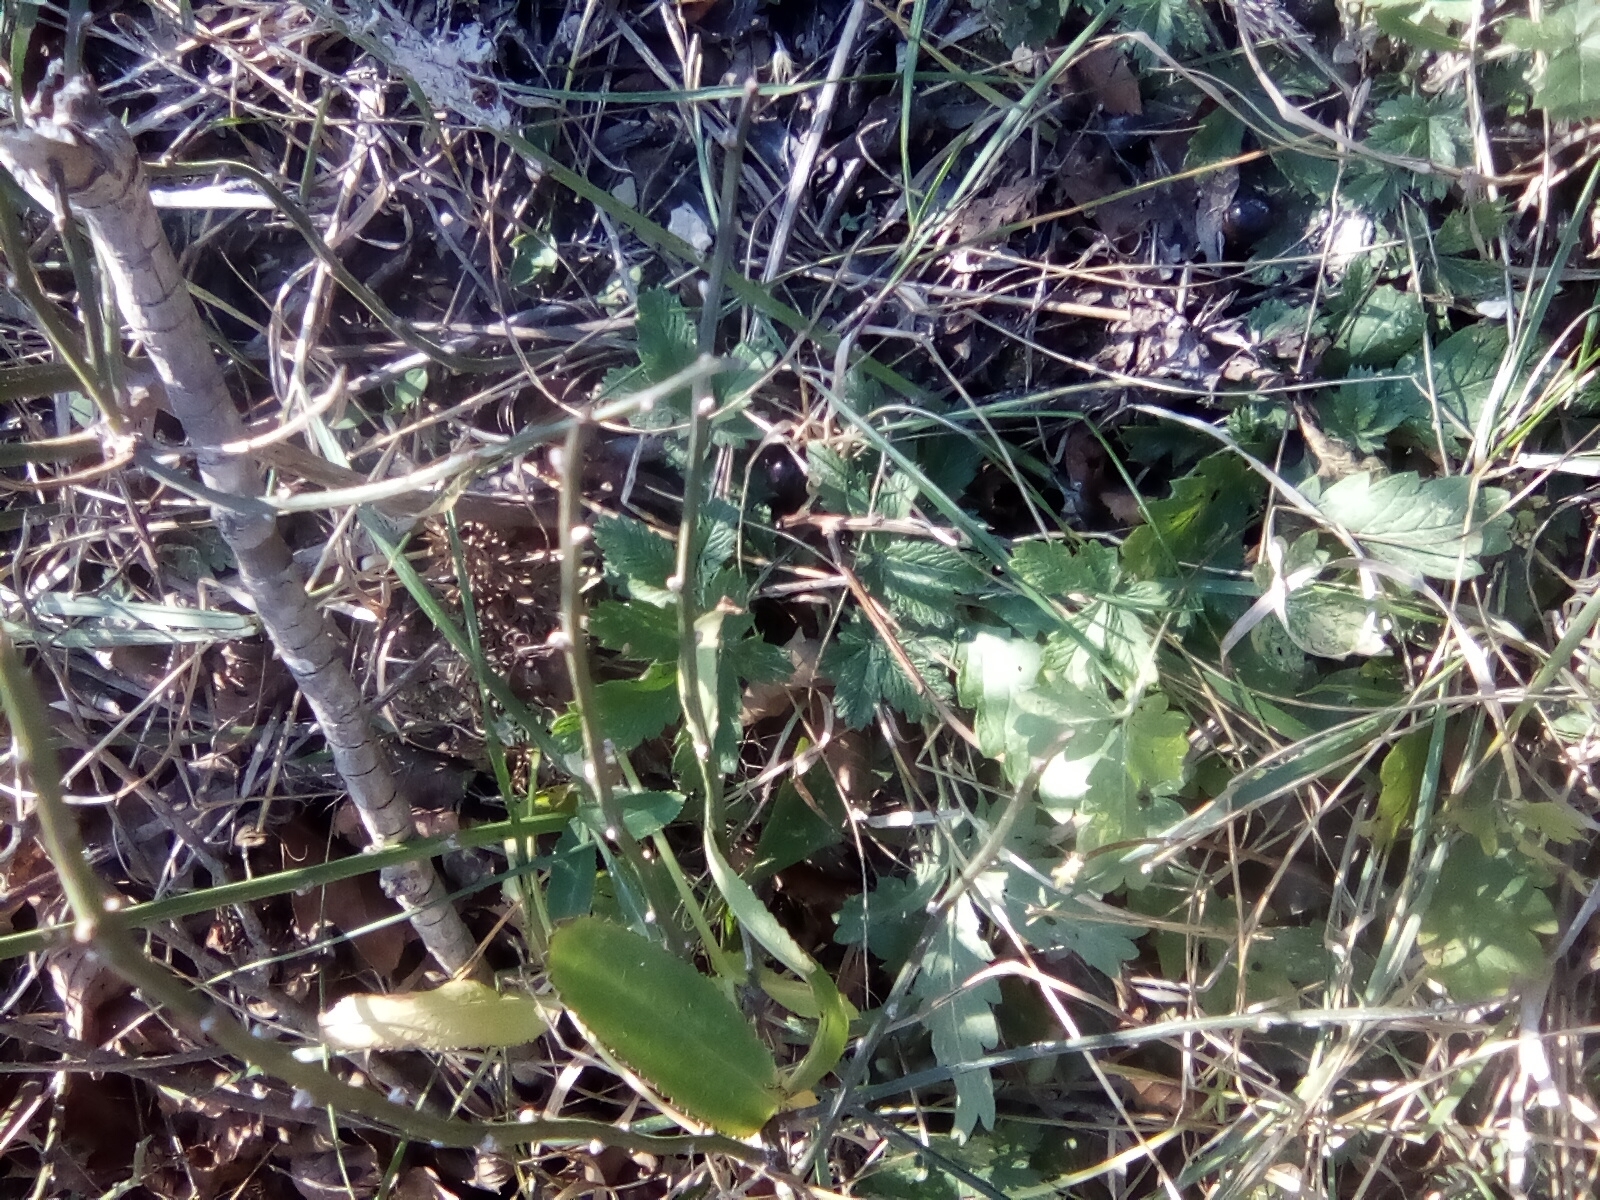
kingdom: Plantae
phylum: Tracheophyta
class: Magnoliopsida
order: Rosales
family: Rosaceae
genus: Agrimonia
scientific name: Agrimonia eupatoria
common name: Agrimony
